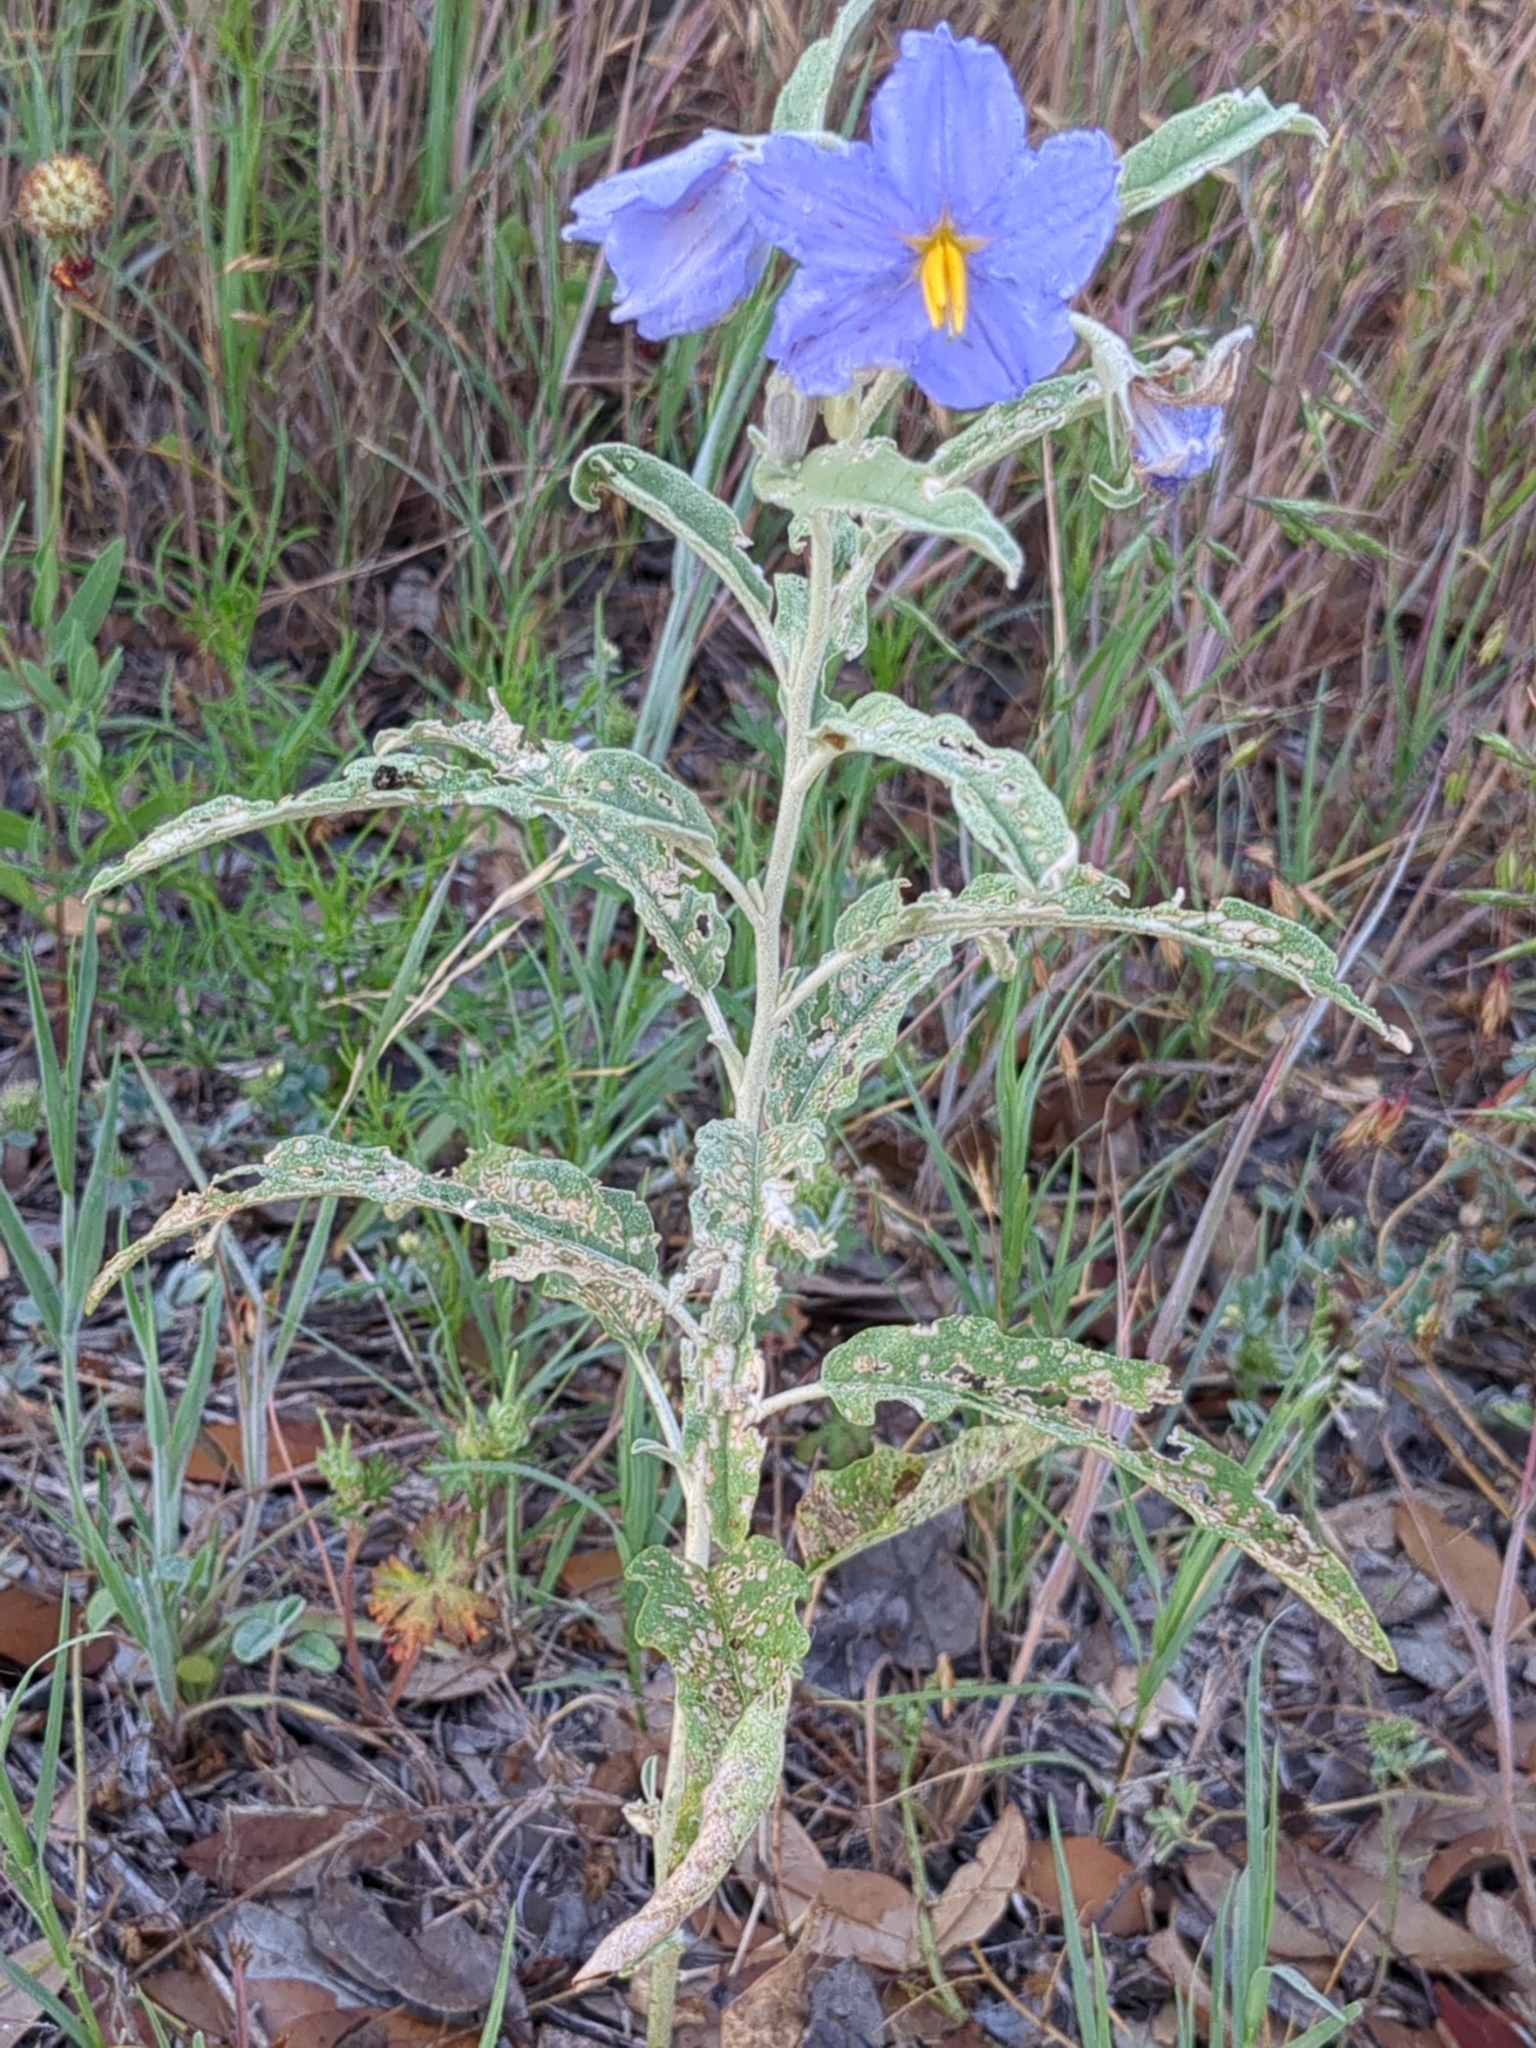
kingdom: Plantae
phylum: Tracheophyta
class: Magnoliopsida
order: Solanales
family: Solanaceae
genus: Solanum
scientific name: Solanum elaeagnifolium
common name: Silverleaf nightshade
